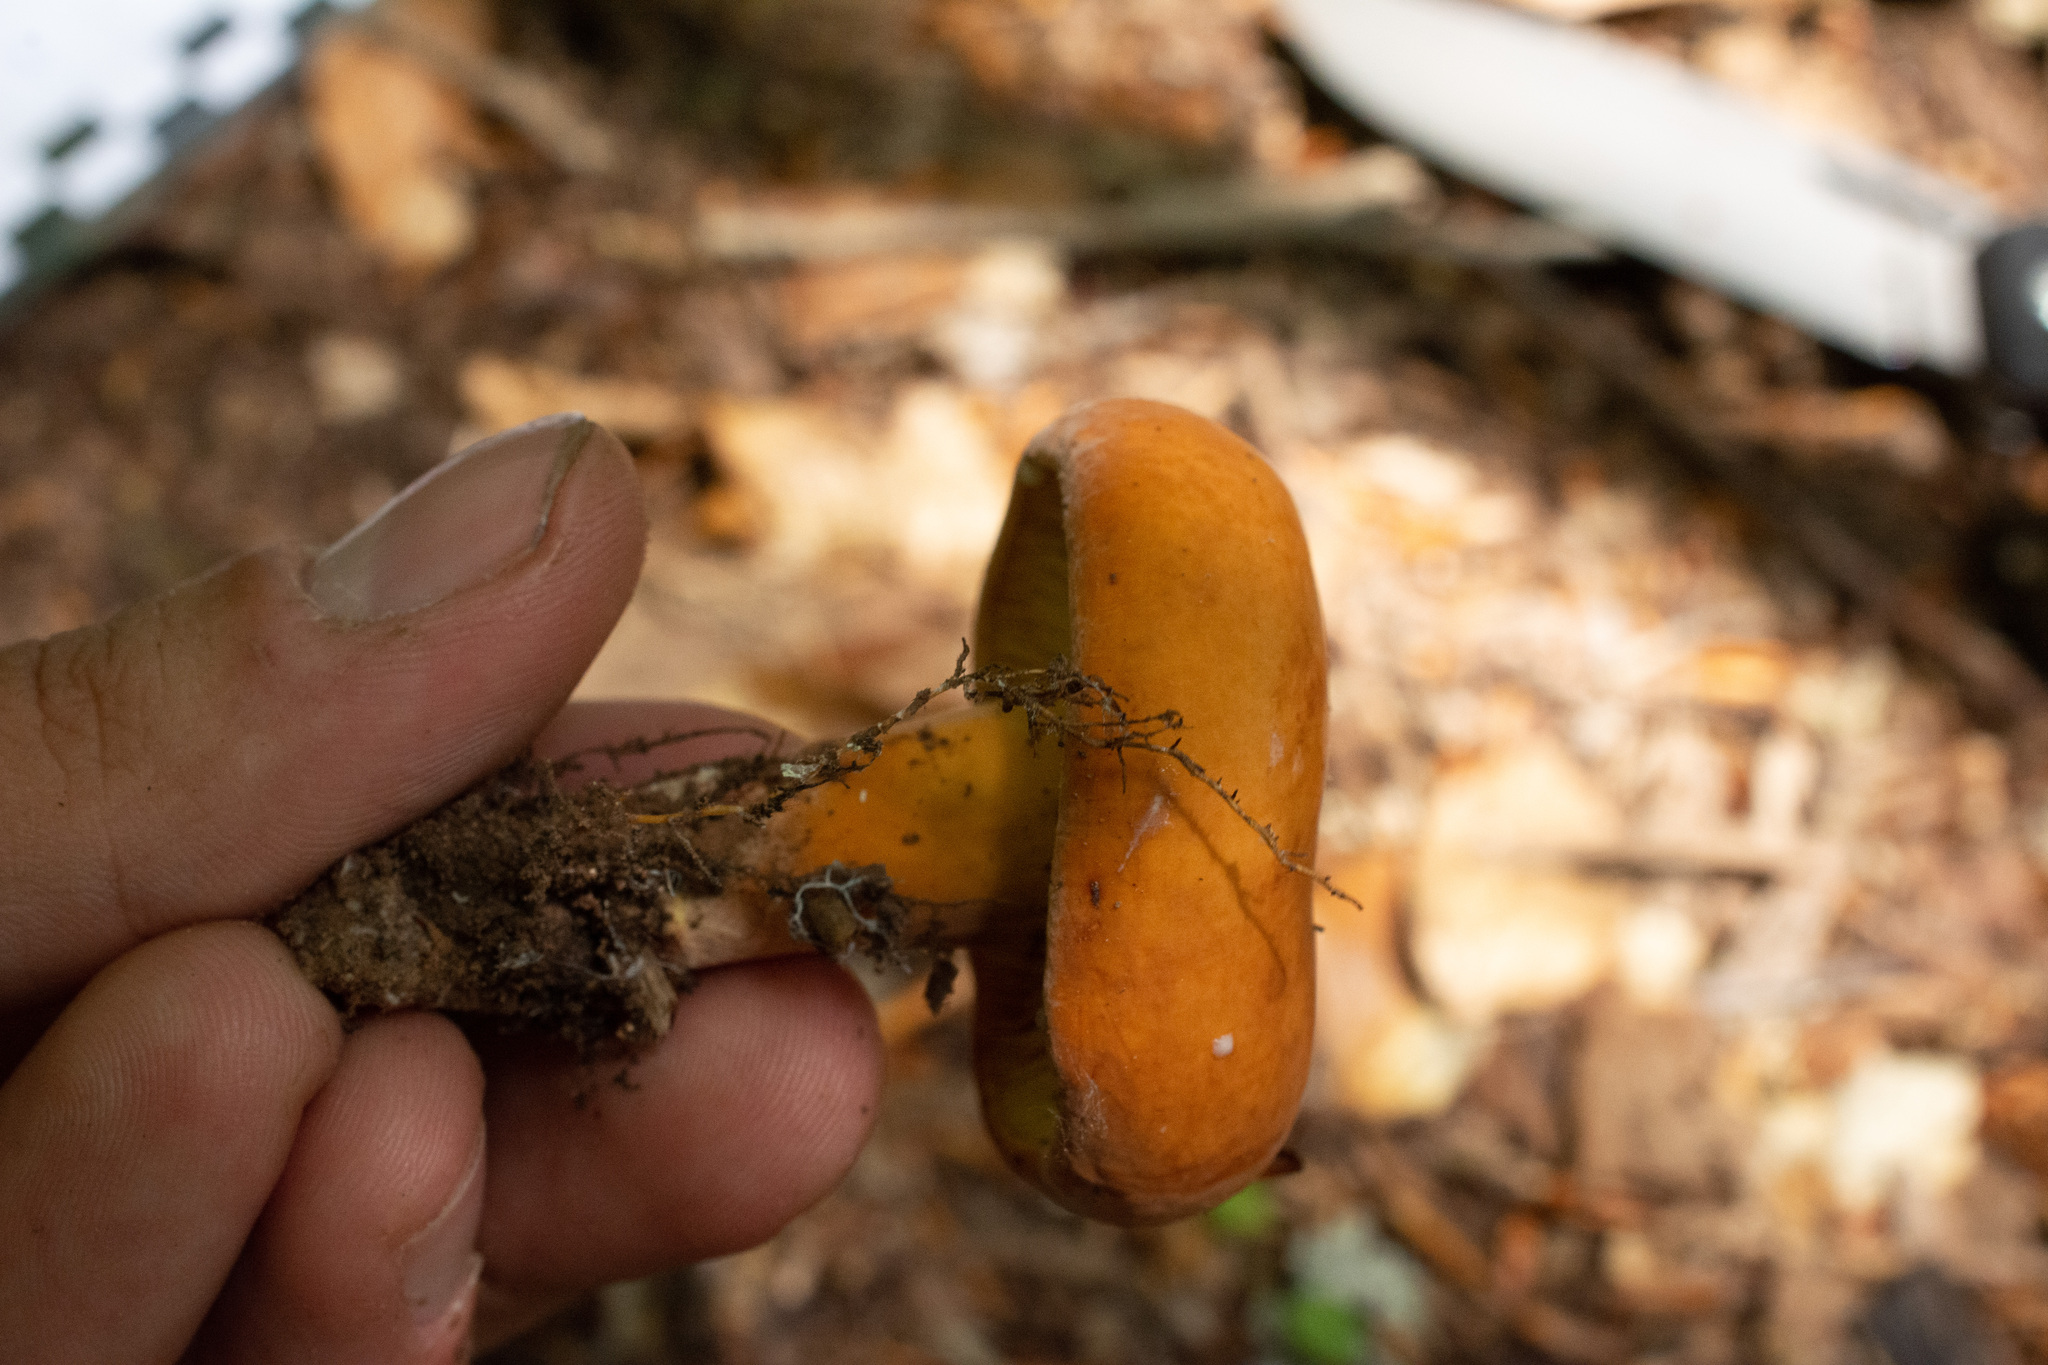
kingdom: Fungi
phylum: Basidiomycota
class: Agaricomycetes
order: Russulales
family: Russulaceae
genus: Lactifluus
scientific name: Lactifluus volemus
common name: Fishy milkcap
